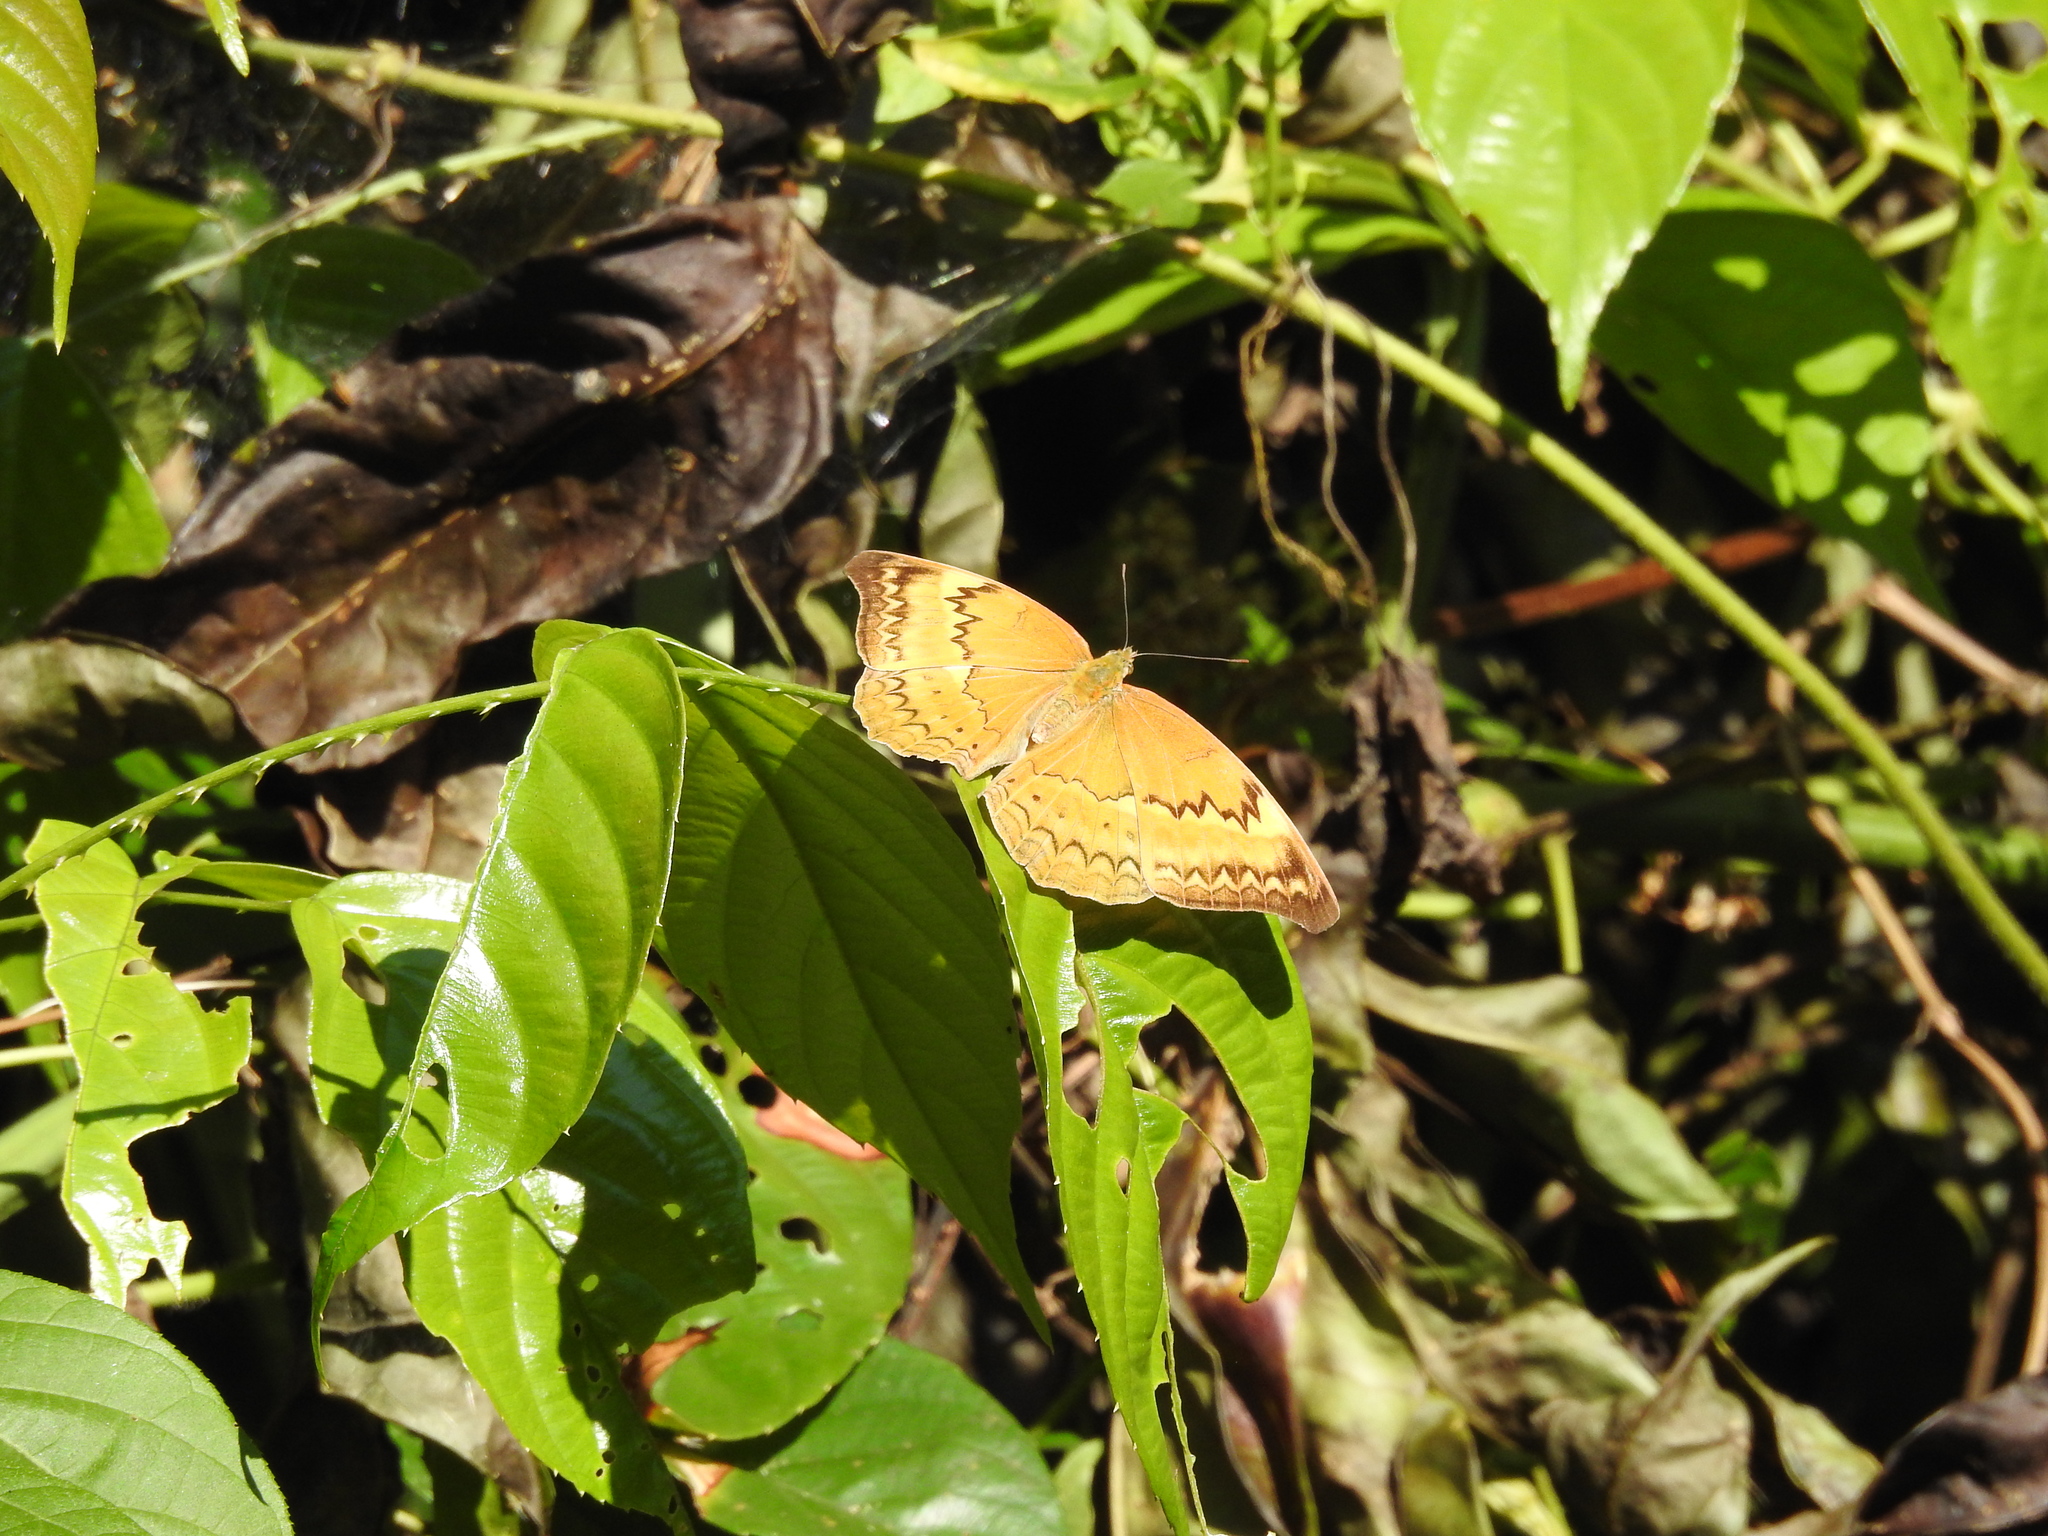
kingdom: Animalia
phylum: Arthropoda
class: Insecta
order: Lepidoptera
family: Nymphalidae
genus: Cirrochroa
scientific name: Cirrochroa aoris
